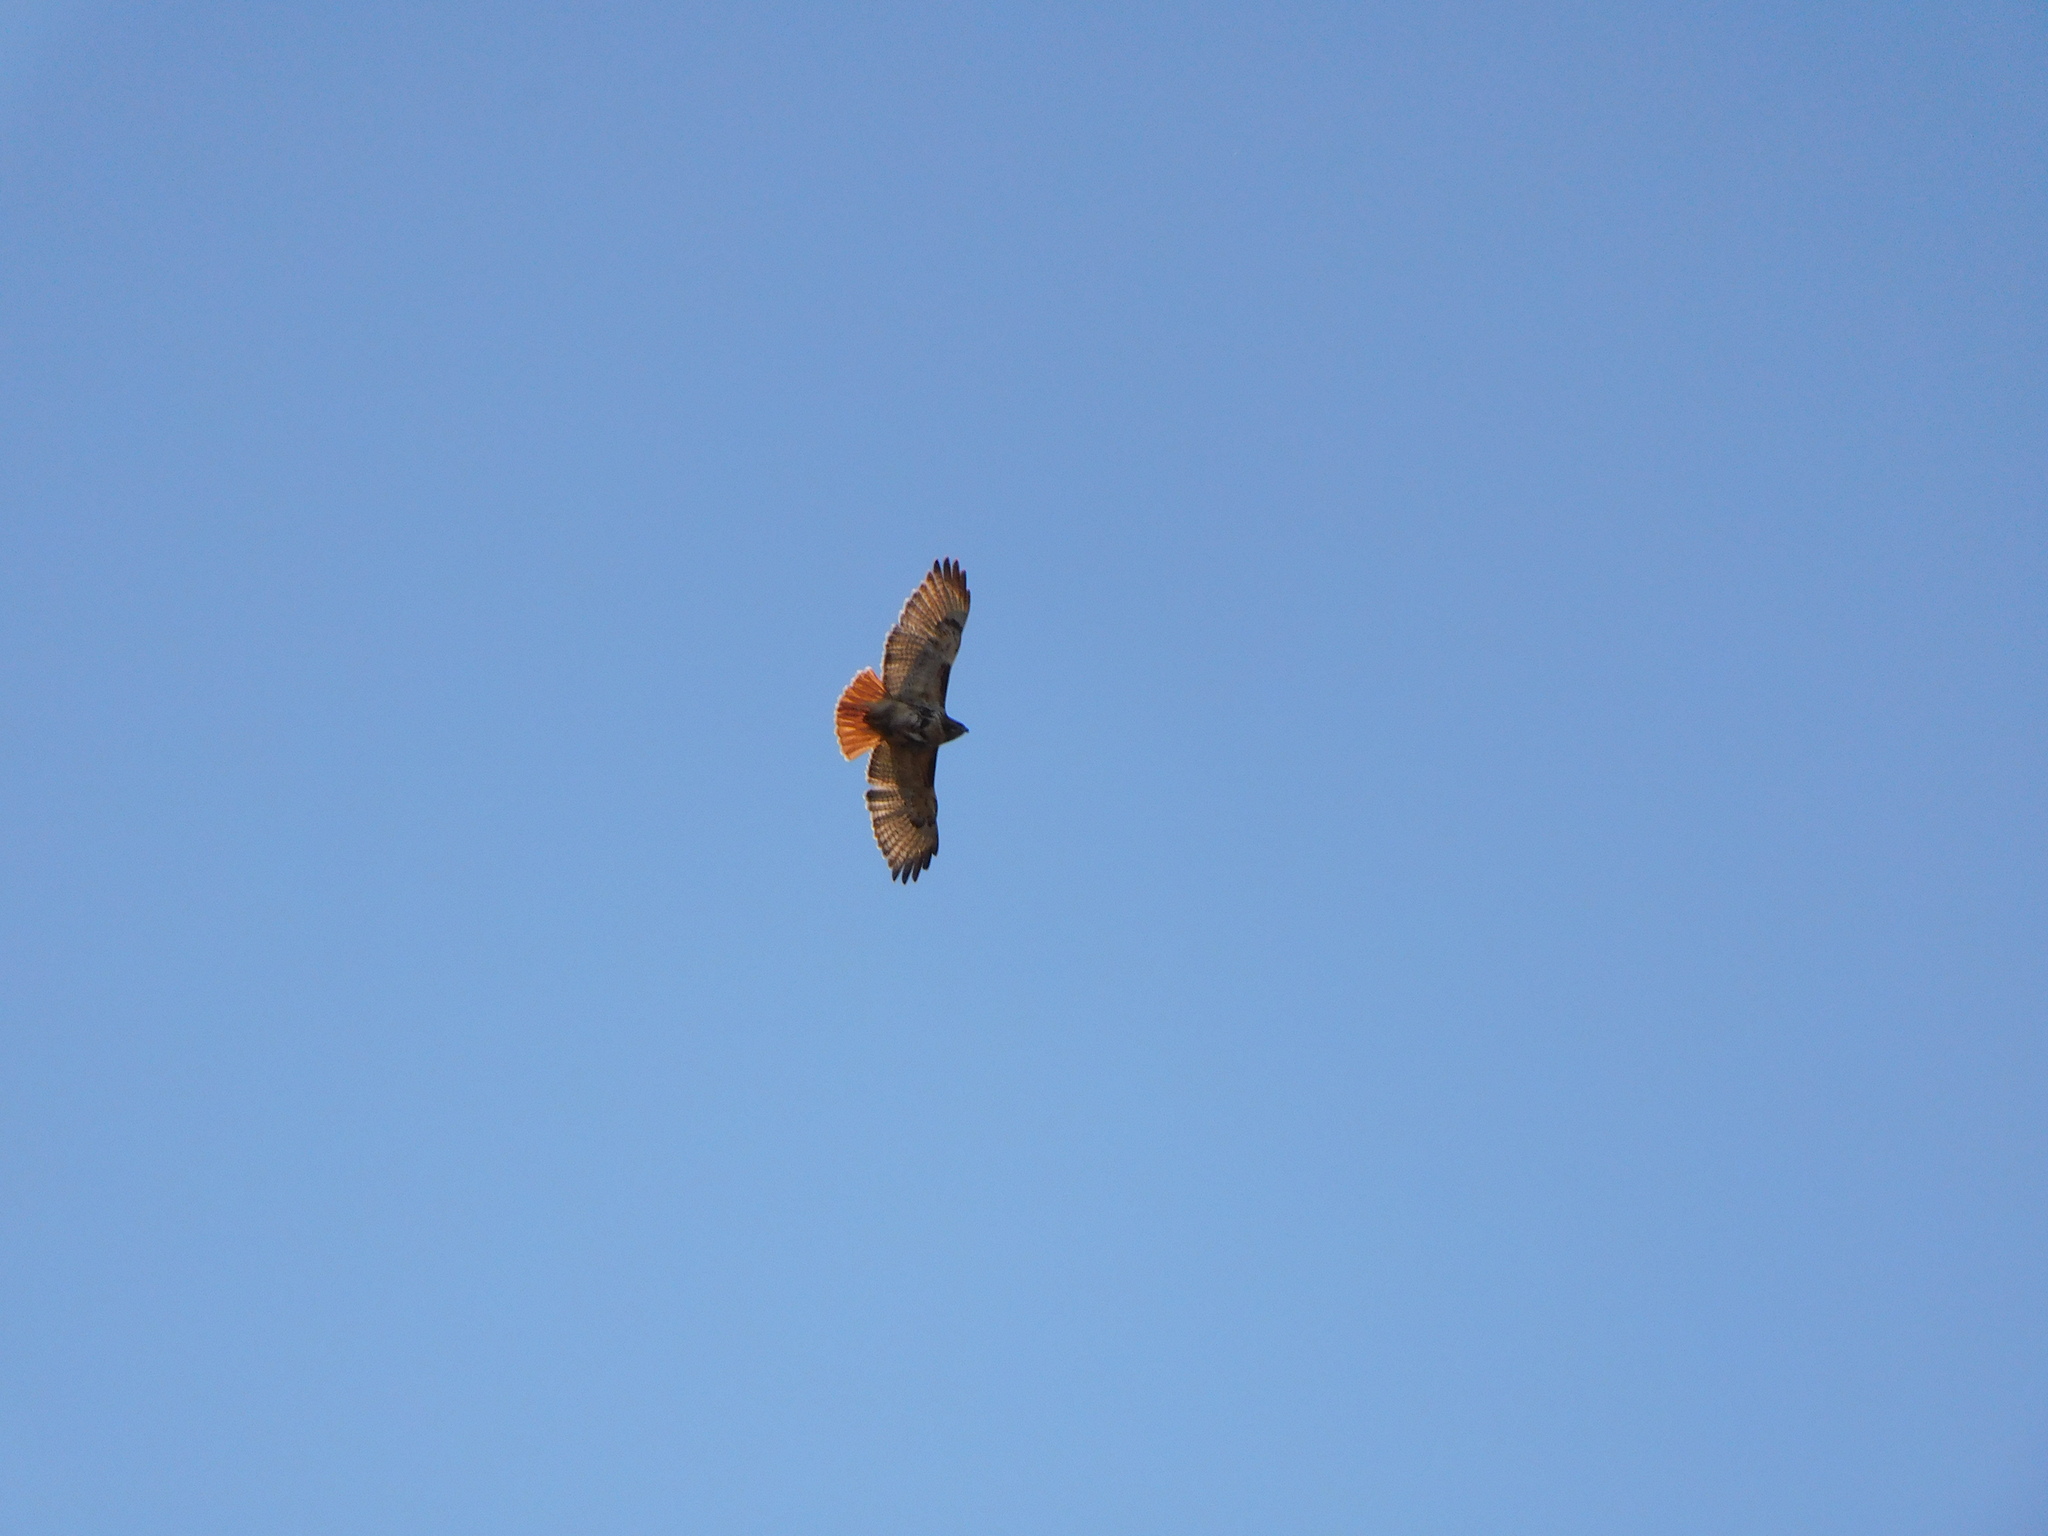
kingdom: Animalia
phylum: Chordata
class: Aves
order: Accipitriformes
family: Accipitridae
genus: Buteo
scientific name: Buteo jamaicensis
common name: Red-tailed hawk
